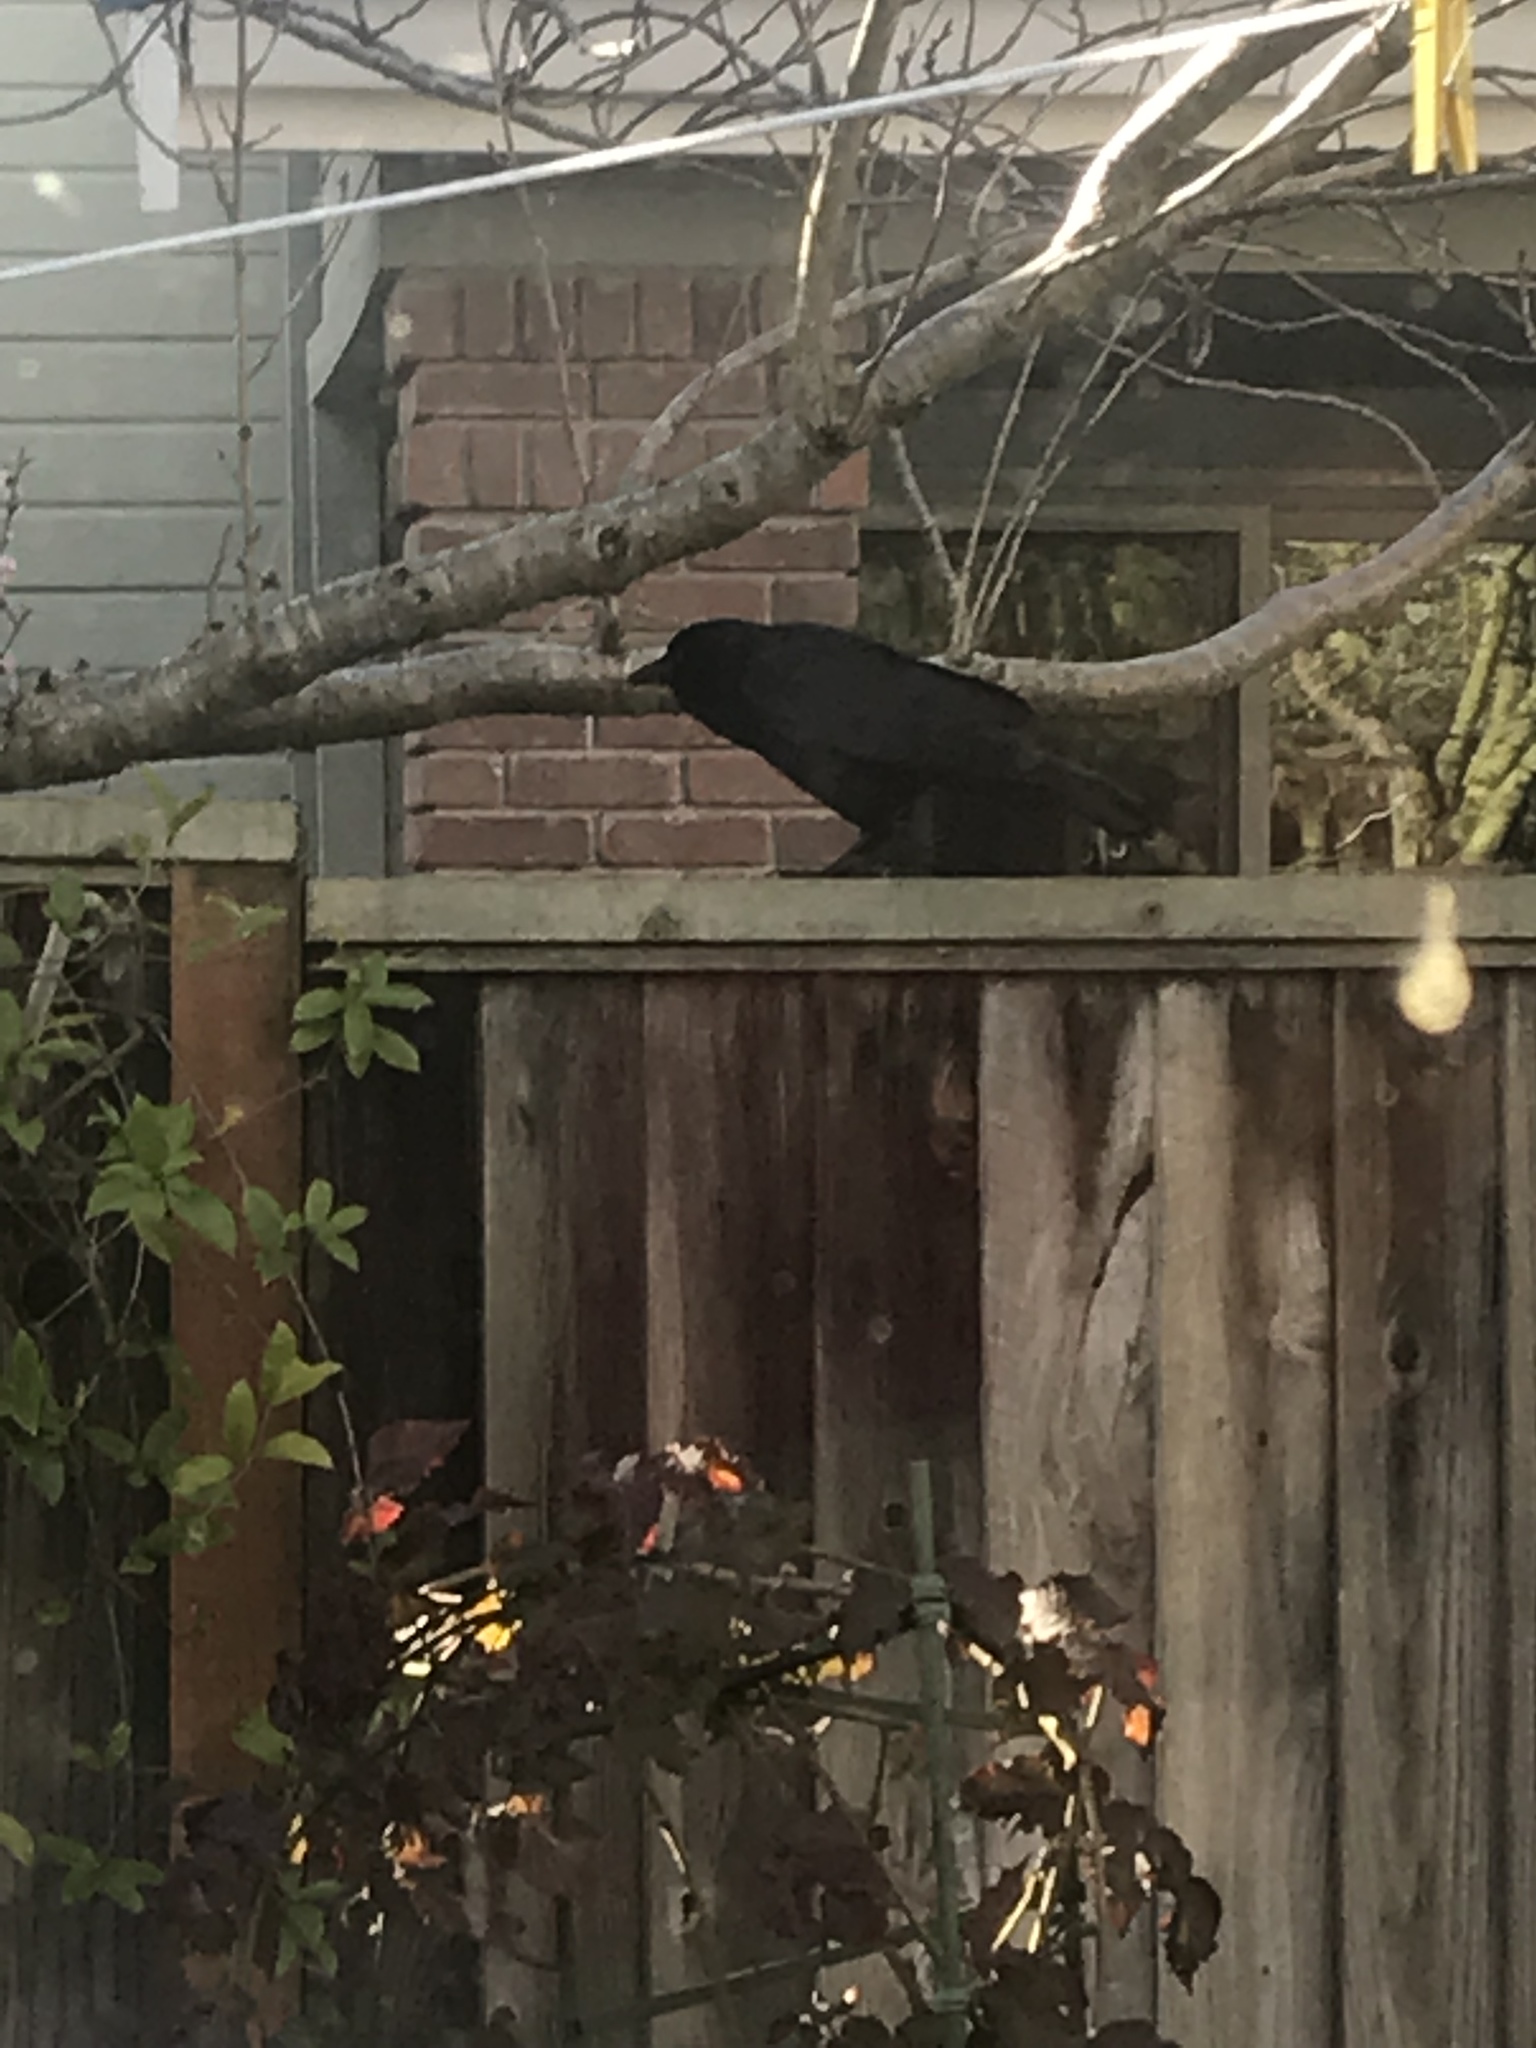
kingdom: Animalia
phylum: Chordata
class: Aves
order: Passeriformes
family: Corvidae
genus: Corvus
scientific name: Corvus brachyrhynchos
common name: American crow
